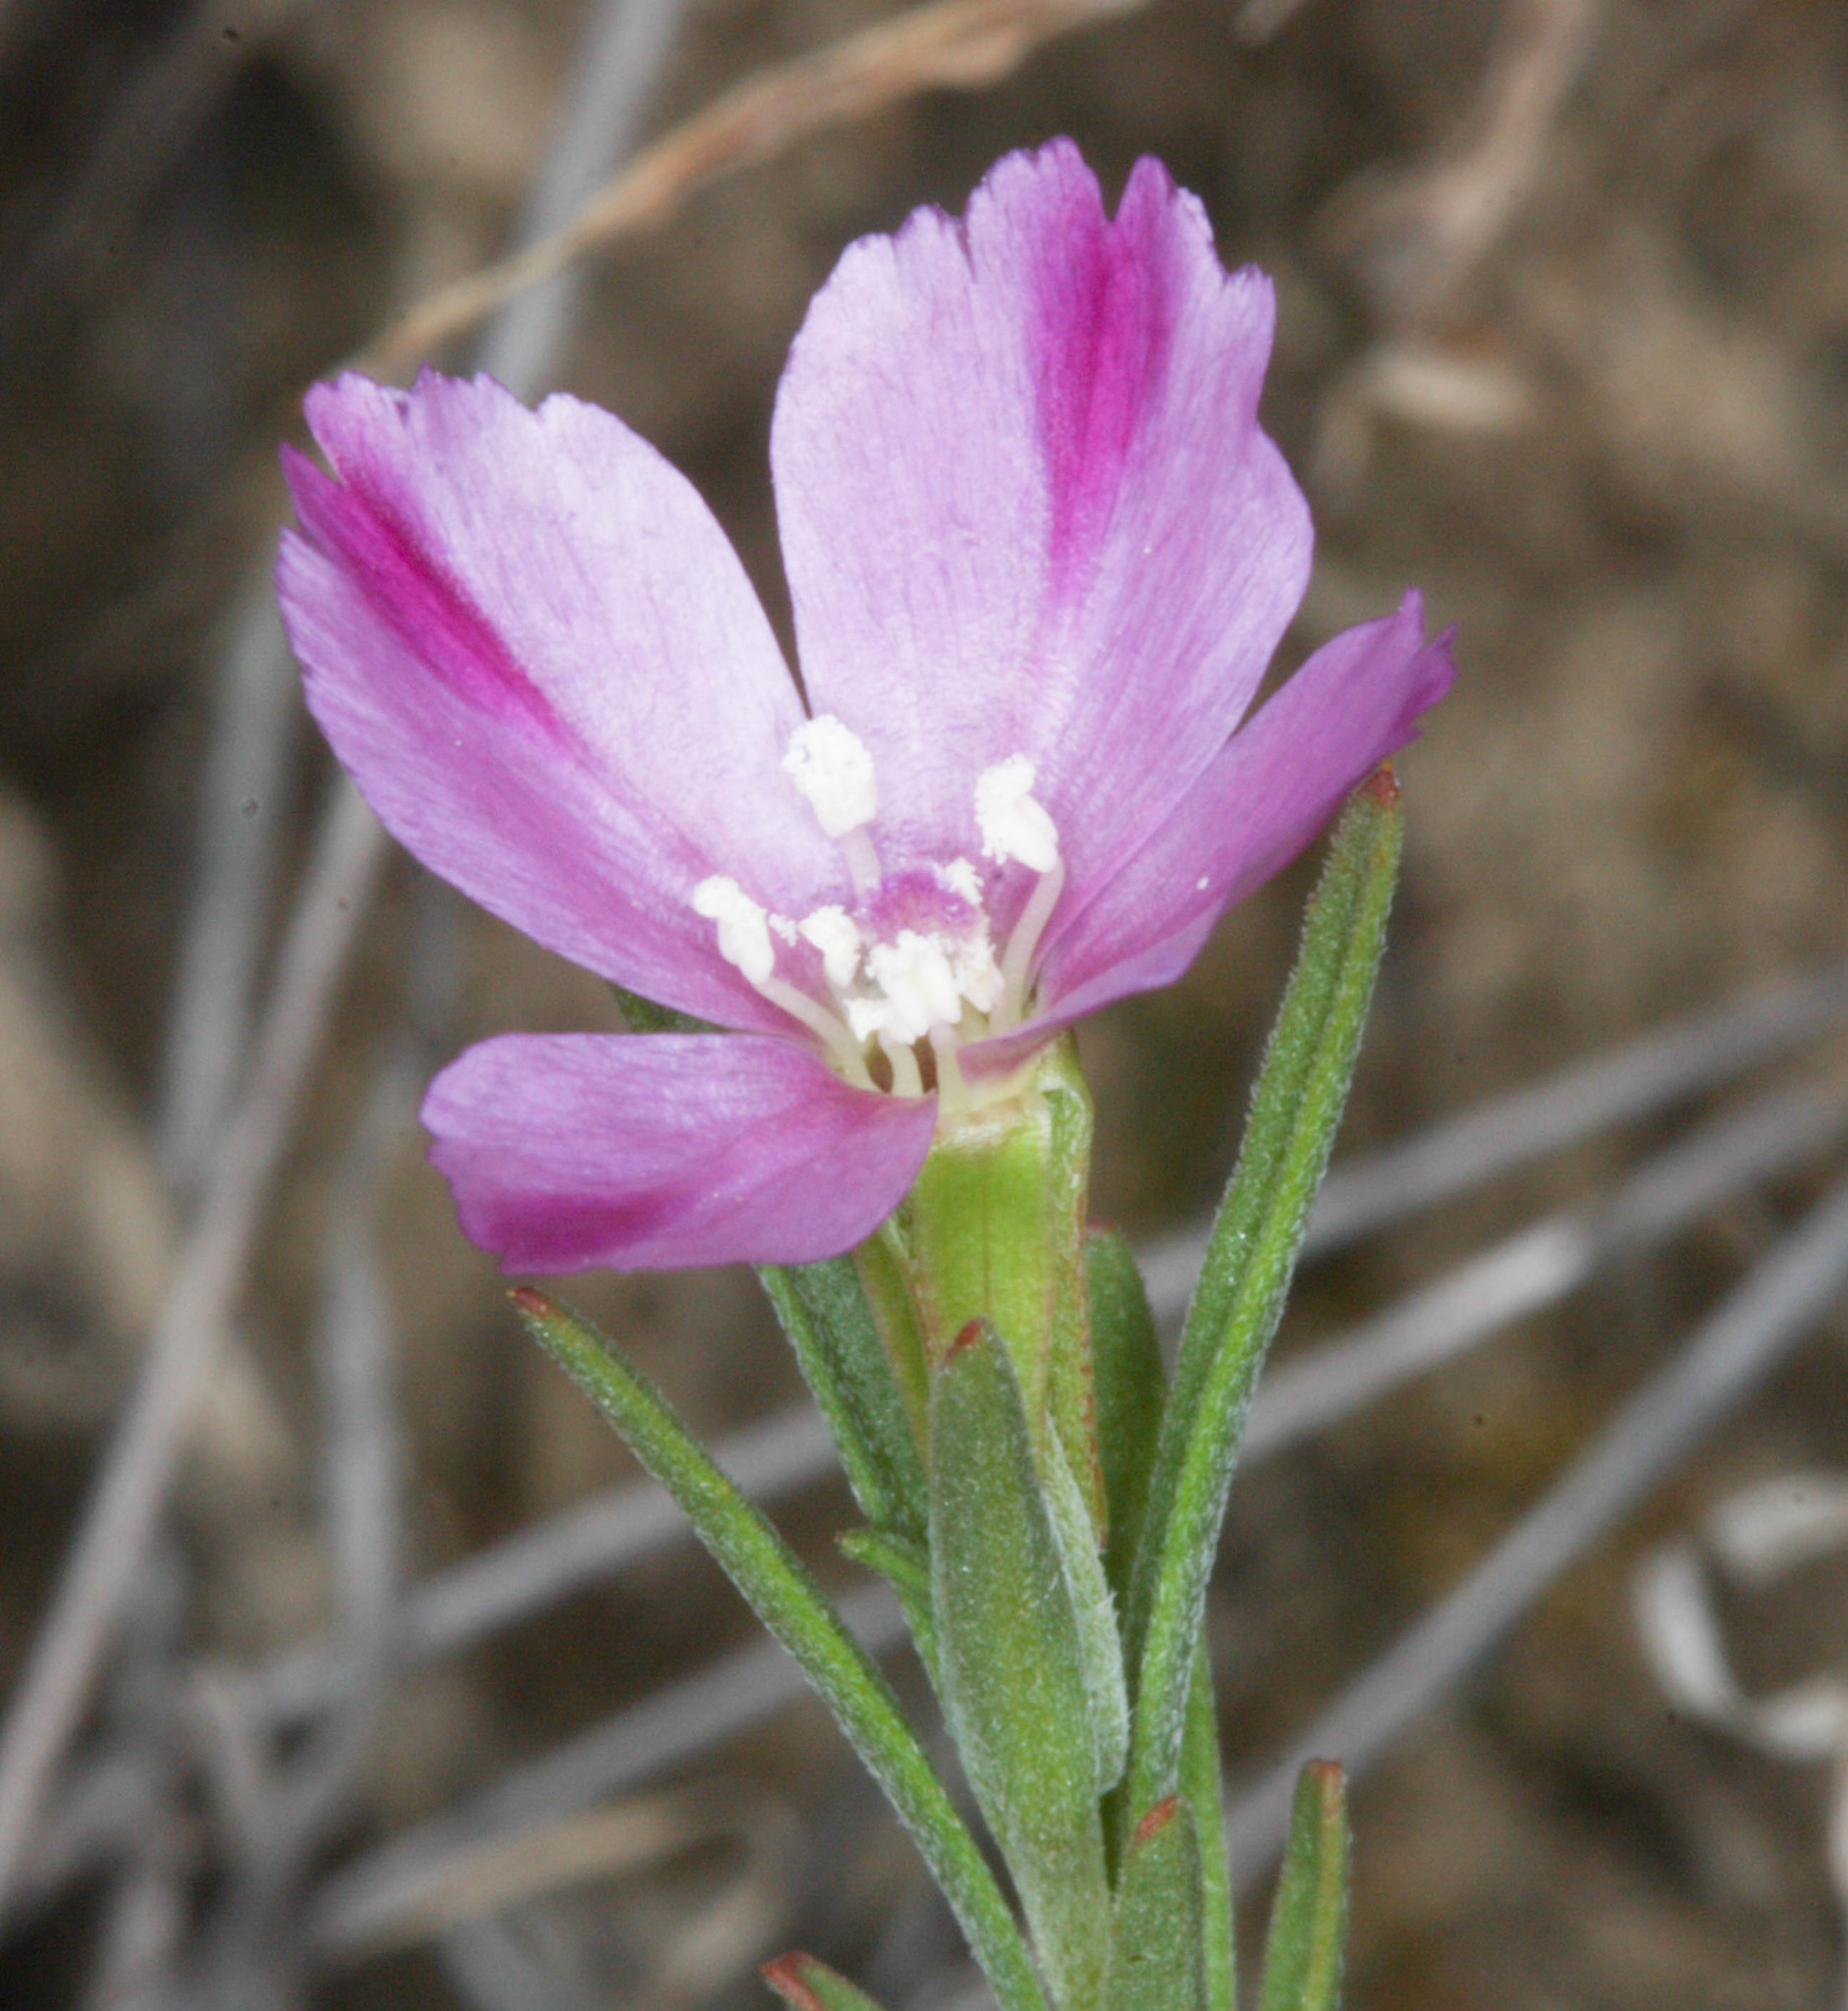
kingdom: Plantae
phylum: Tracheophyta
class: Magnoliopsida
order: Myrtales
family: Onagraceae
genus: Clarkia
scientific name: Clarkia purpurea
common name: Purple clarkia
